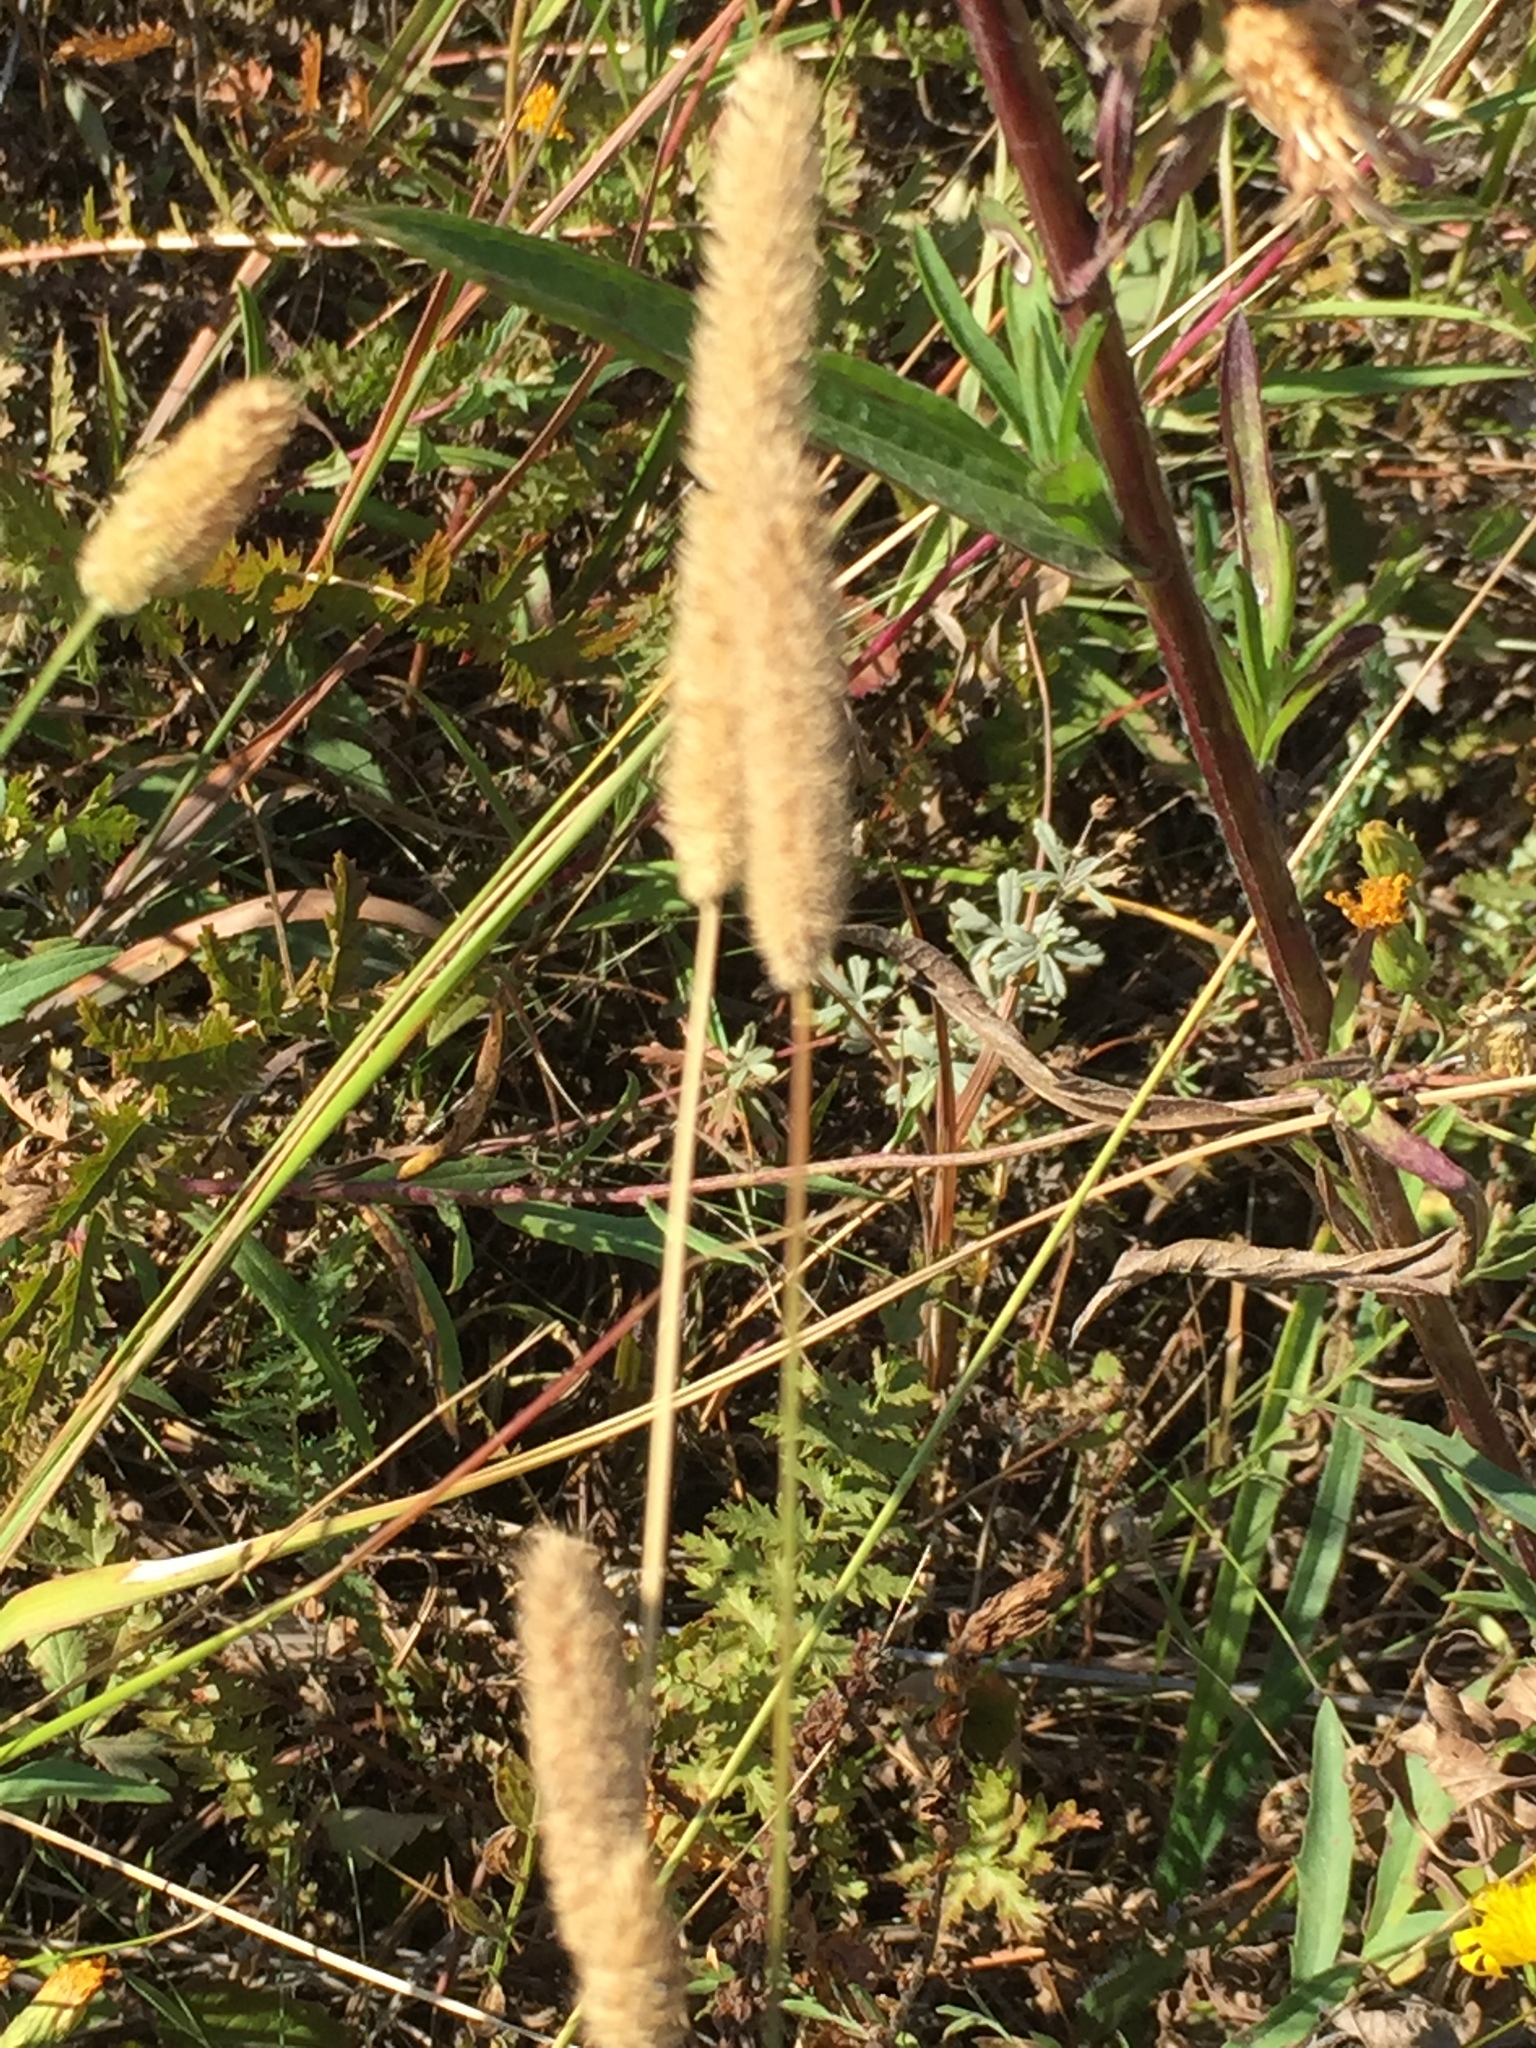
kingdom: Plantae
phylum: Tracheophyta
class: Liliopsida
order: Poales
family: Poaceae
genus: Phleum
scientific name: Phleum pratense
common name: Timothy grass
